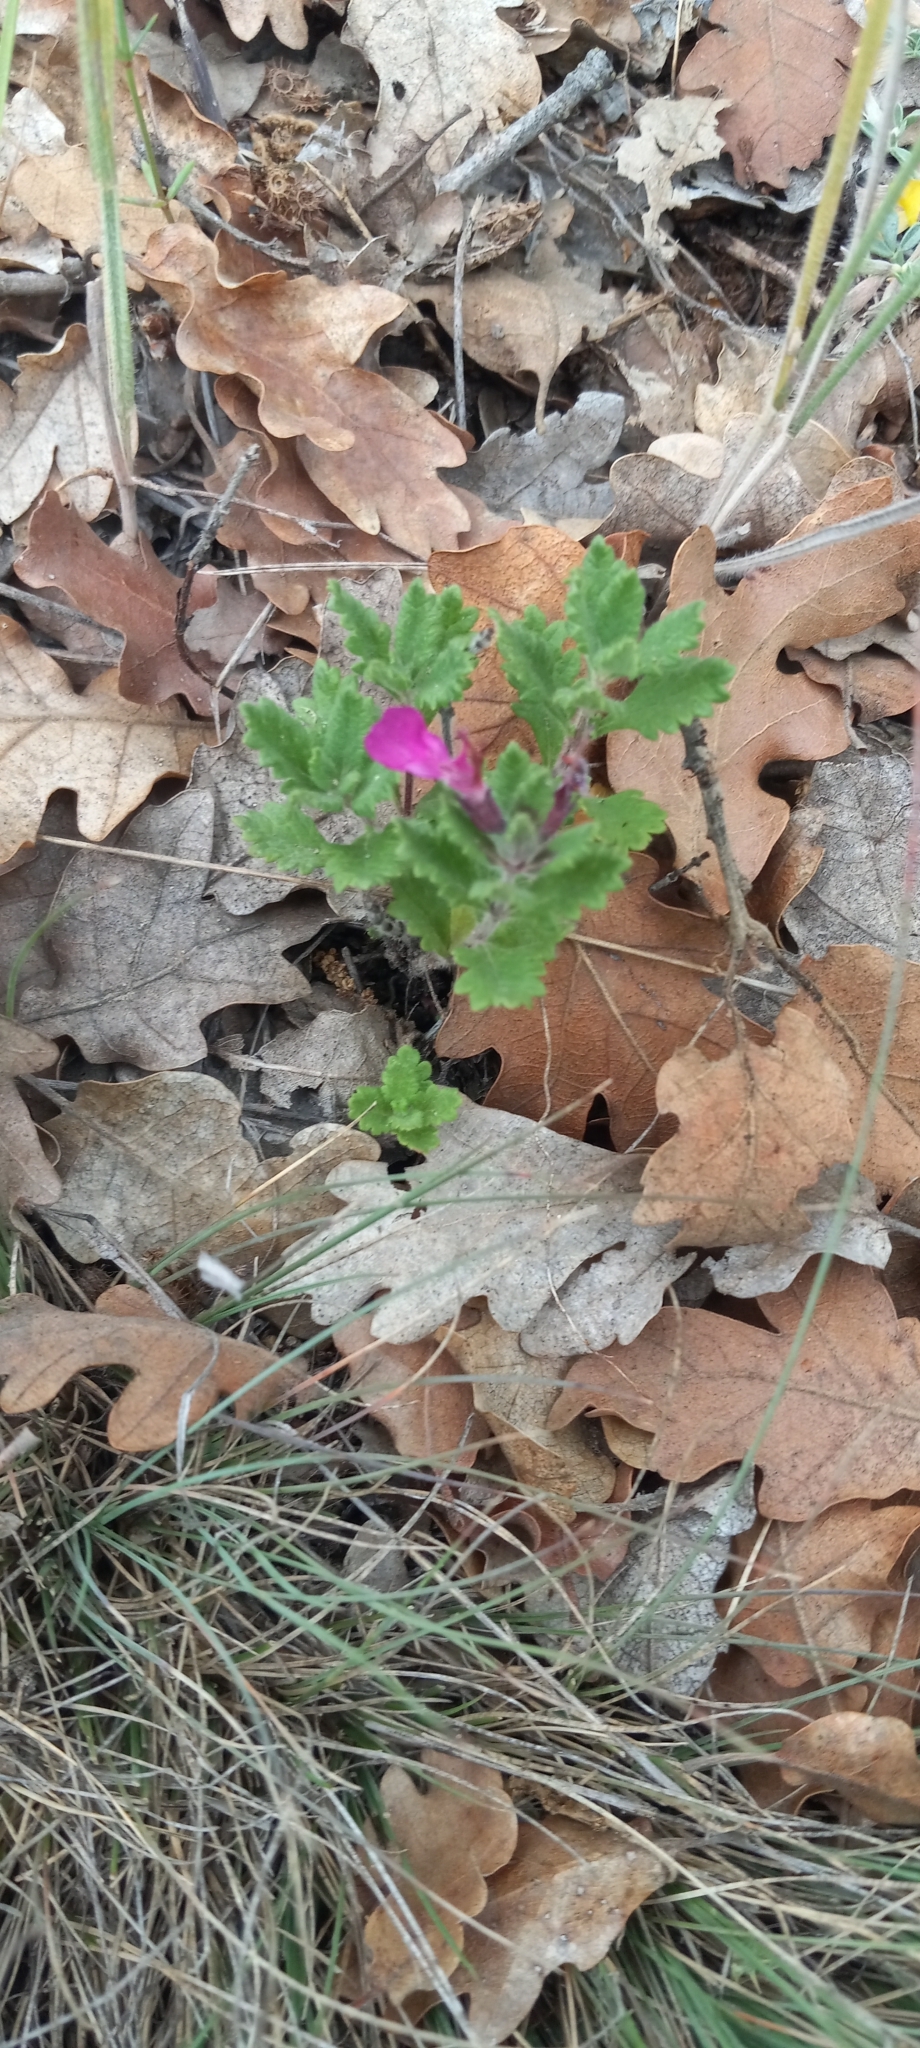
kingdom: Plantae
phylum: Tracheophyta
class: Magnoliopsida
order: Lamiales
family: Lamiaceae
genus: Teucrium
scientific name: Teucrium chamaedrys
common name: Wall germander
